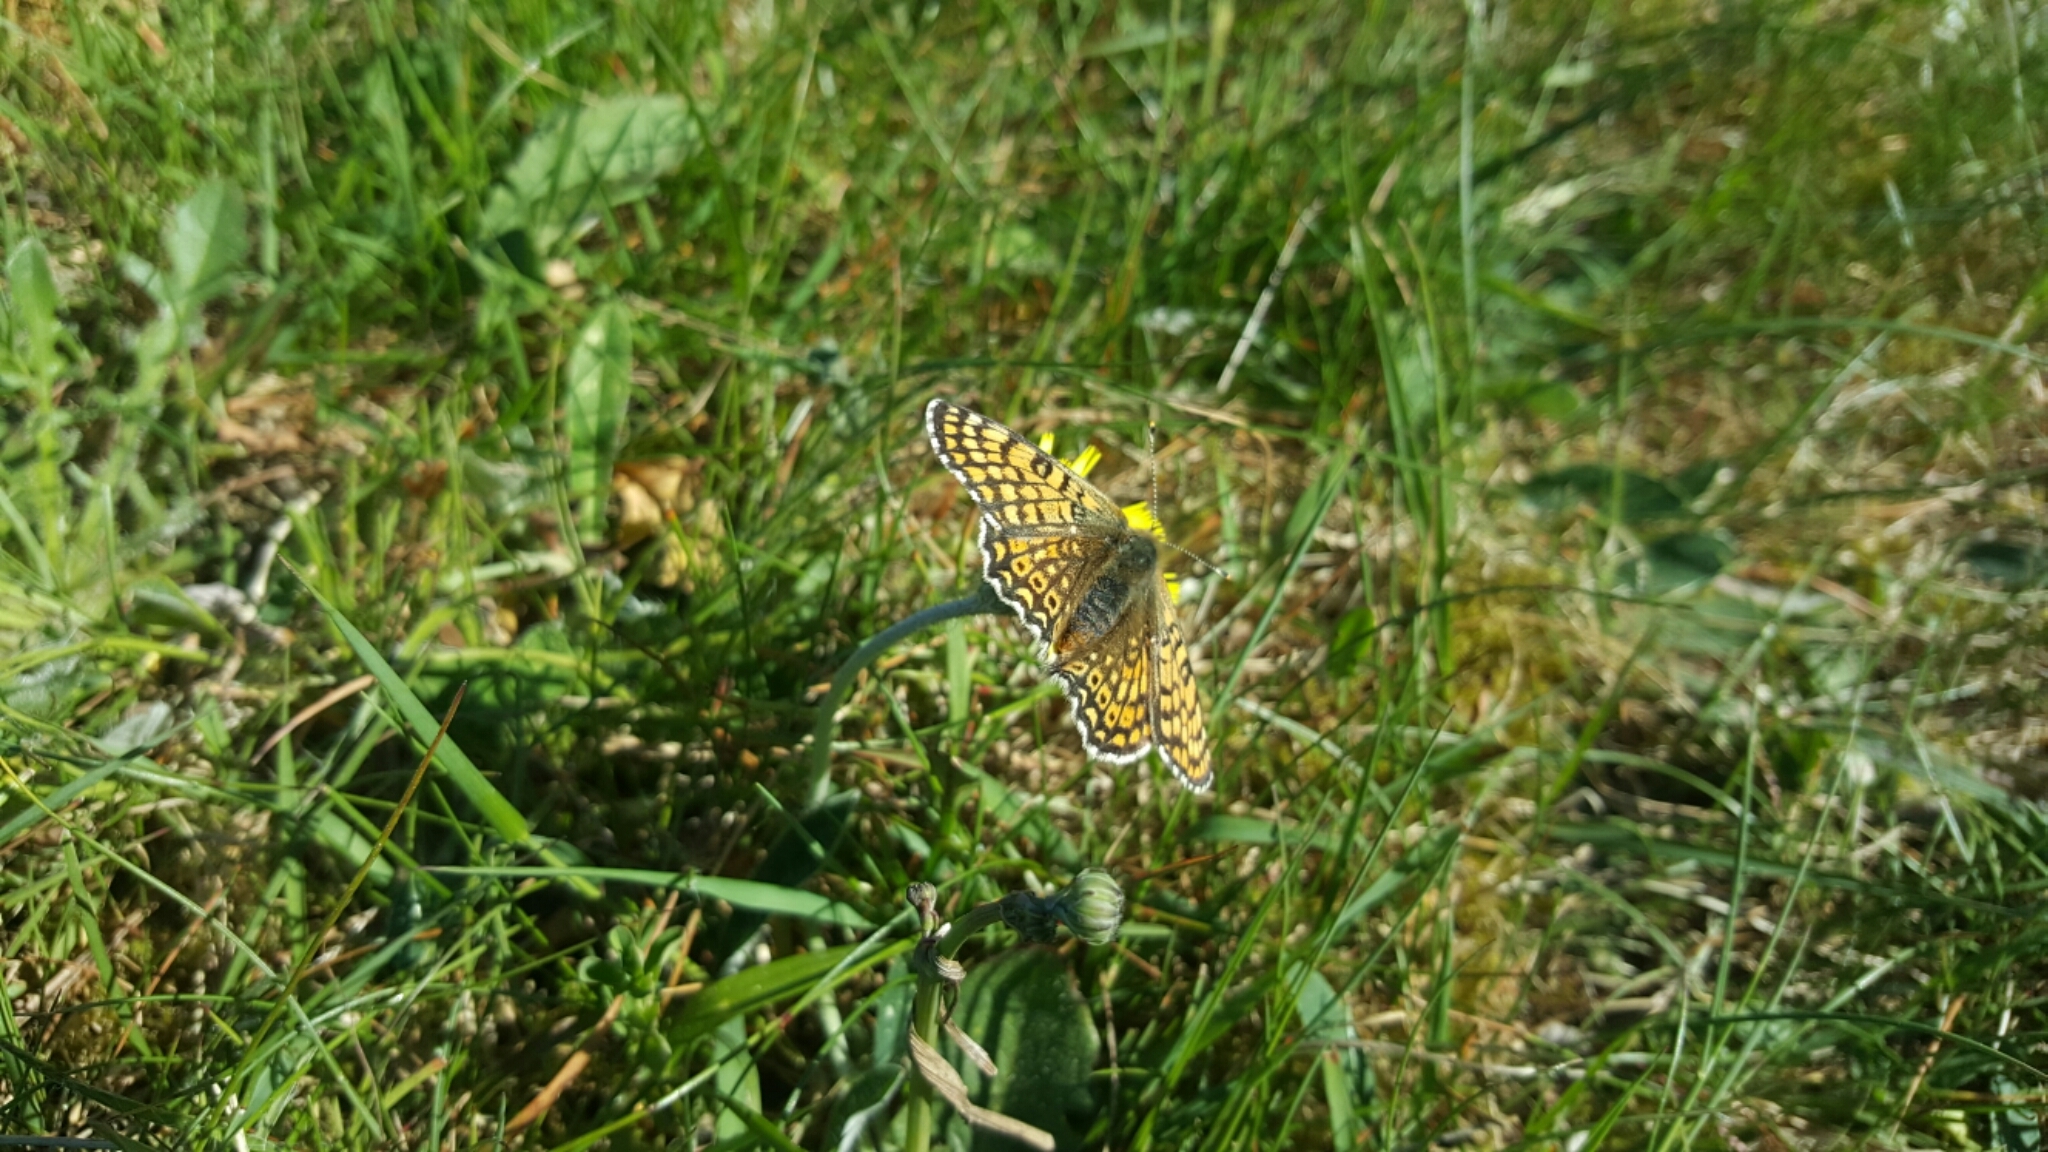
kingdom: Animalia
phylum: Arthropoda
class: Insecta
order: Lepidoptera
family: Nymphalidae
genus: Melitaea
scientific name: Melitaea cinxia
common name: Glanville fritillary
